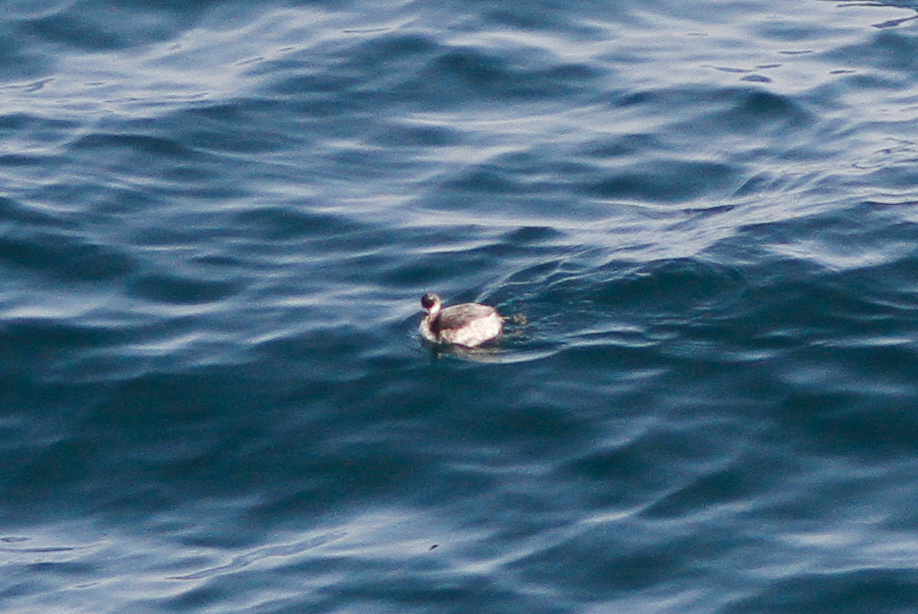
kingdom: Animalia
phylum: Chordata
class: Aves
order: Podicipediformes
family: Podicipedidae
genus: Podiceps
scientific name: Podiceps nigricollis
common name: Black-necked grebe
